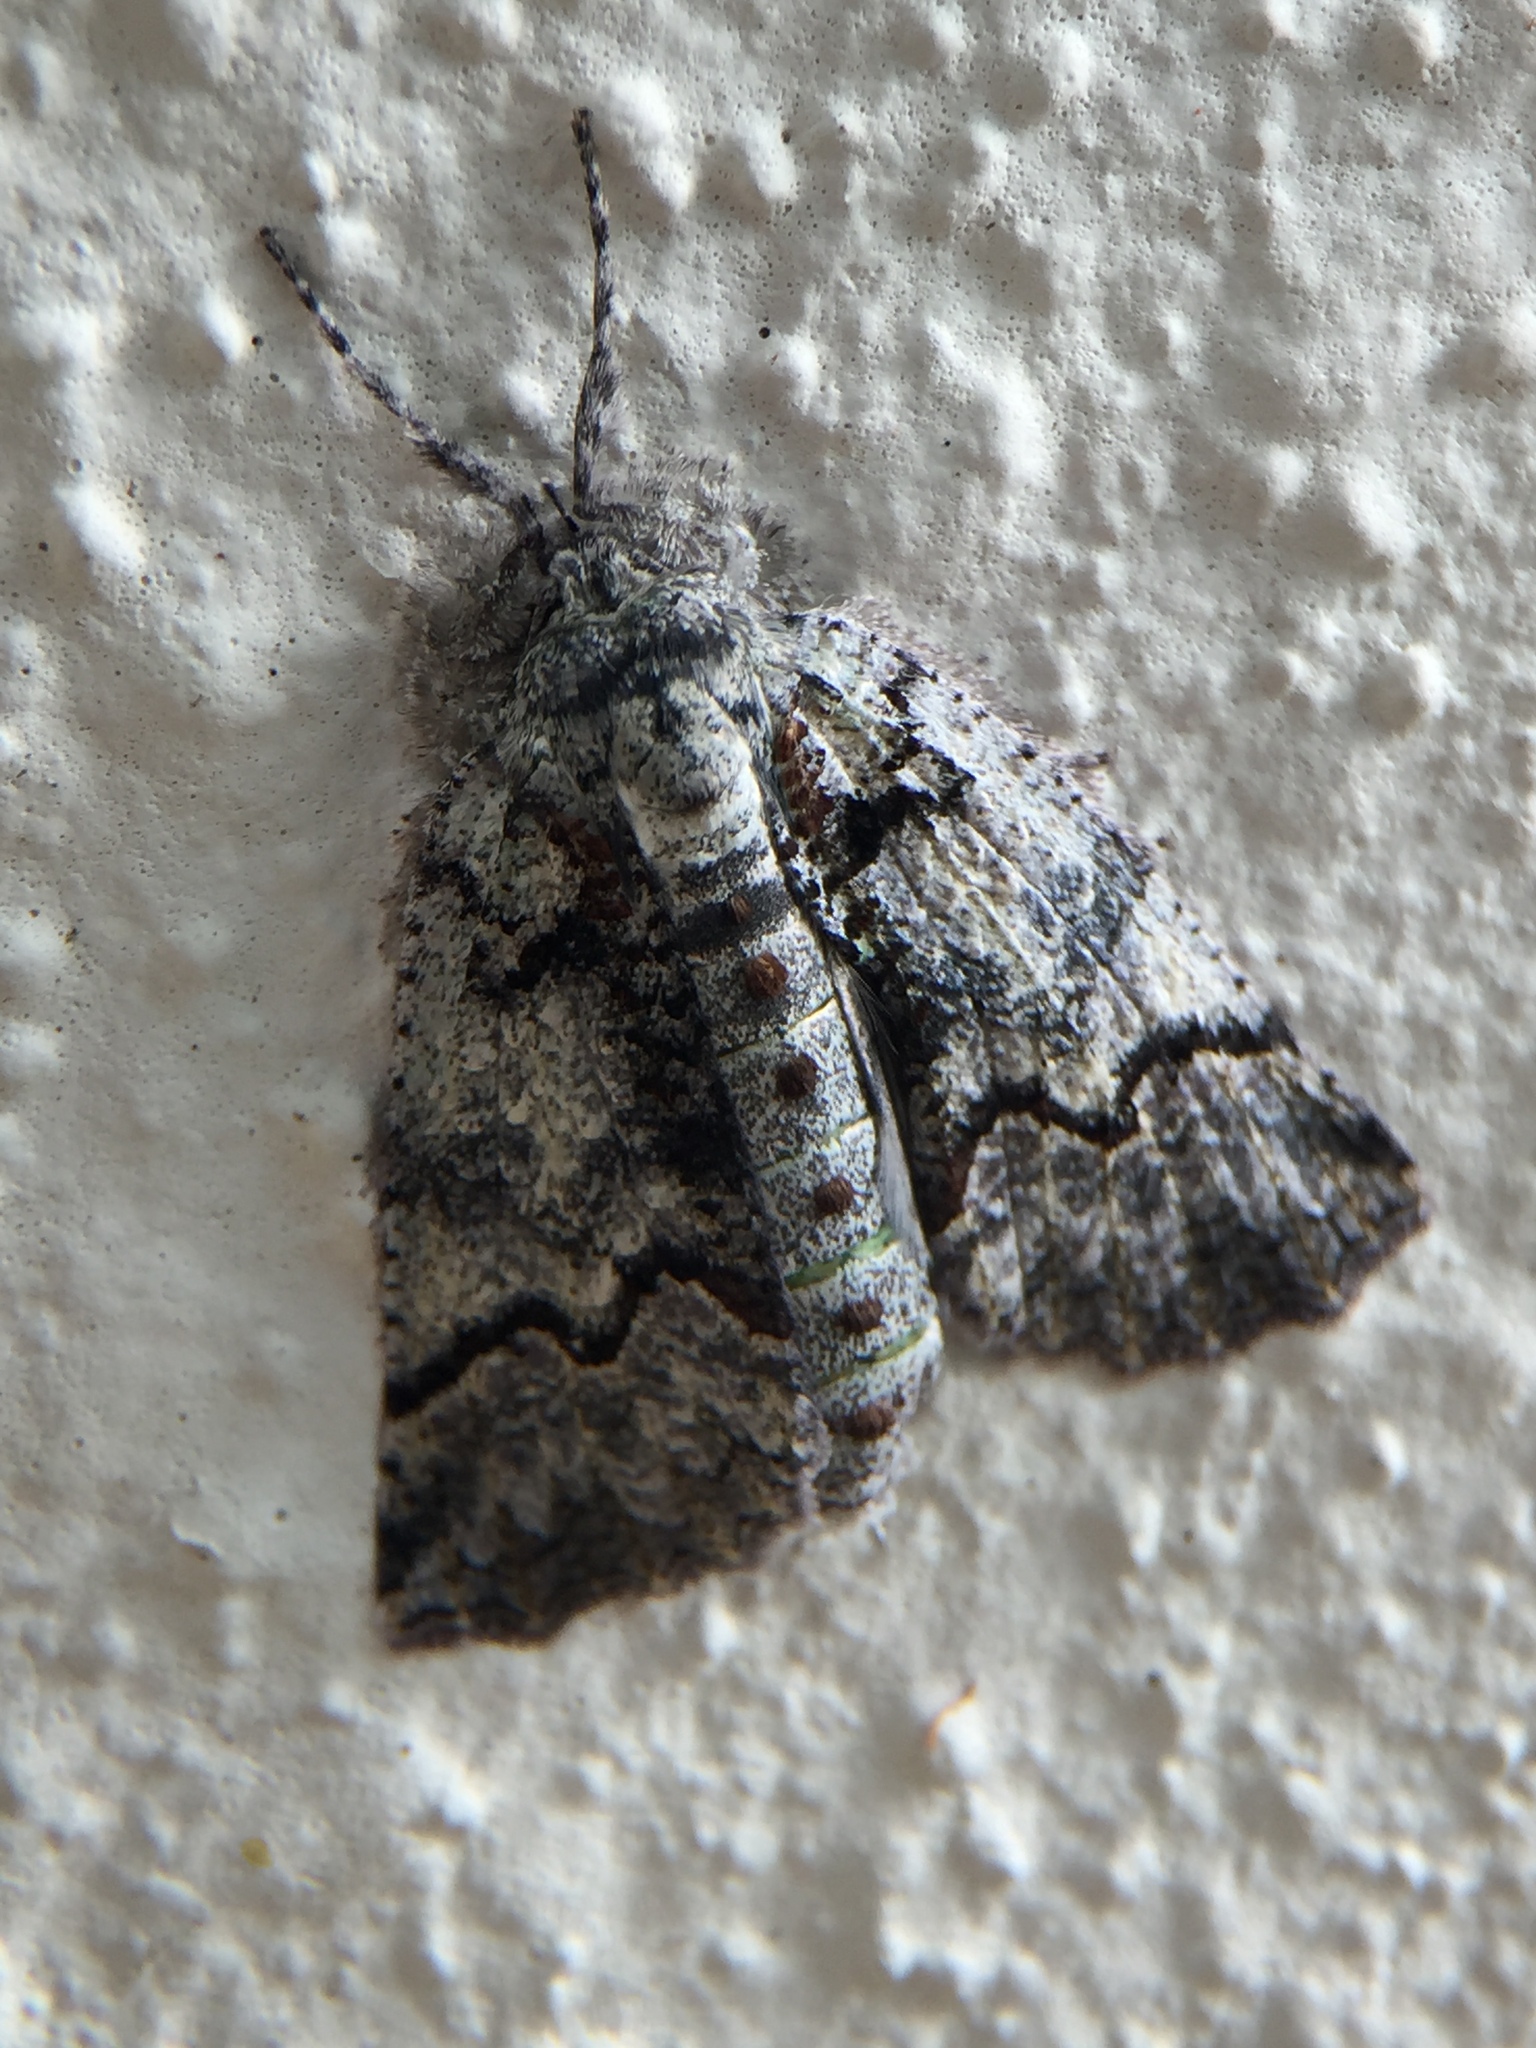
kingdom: Animalia
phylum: Arthropoda
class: Insecta
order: Lepidoptera
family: Geometridae
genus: Declana
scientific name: Declana floccosa
